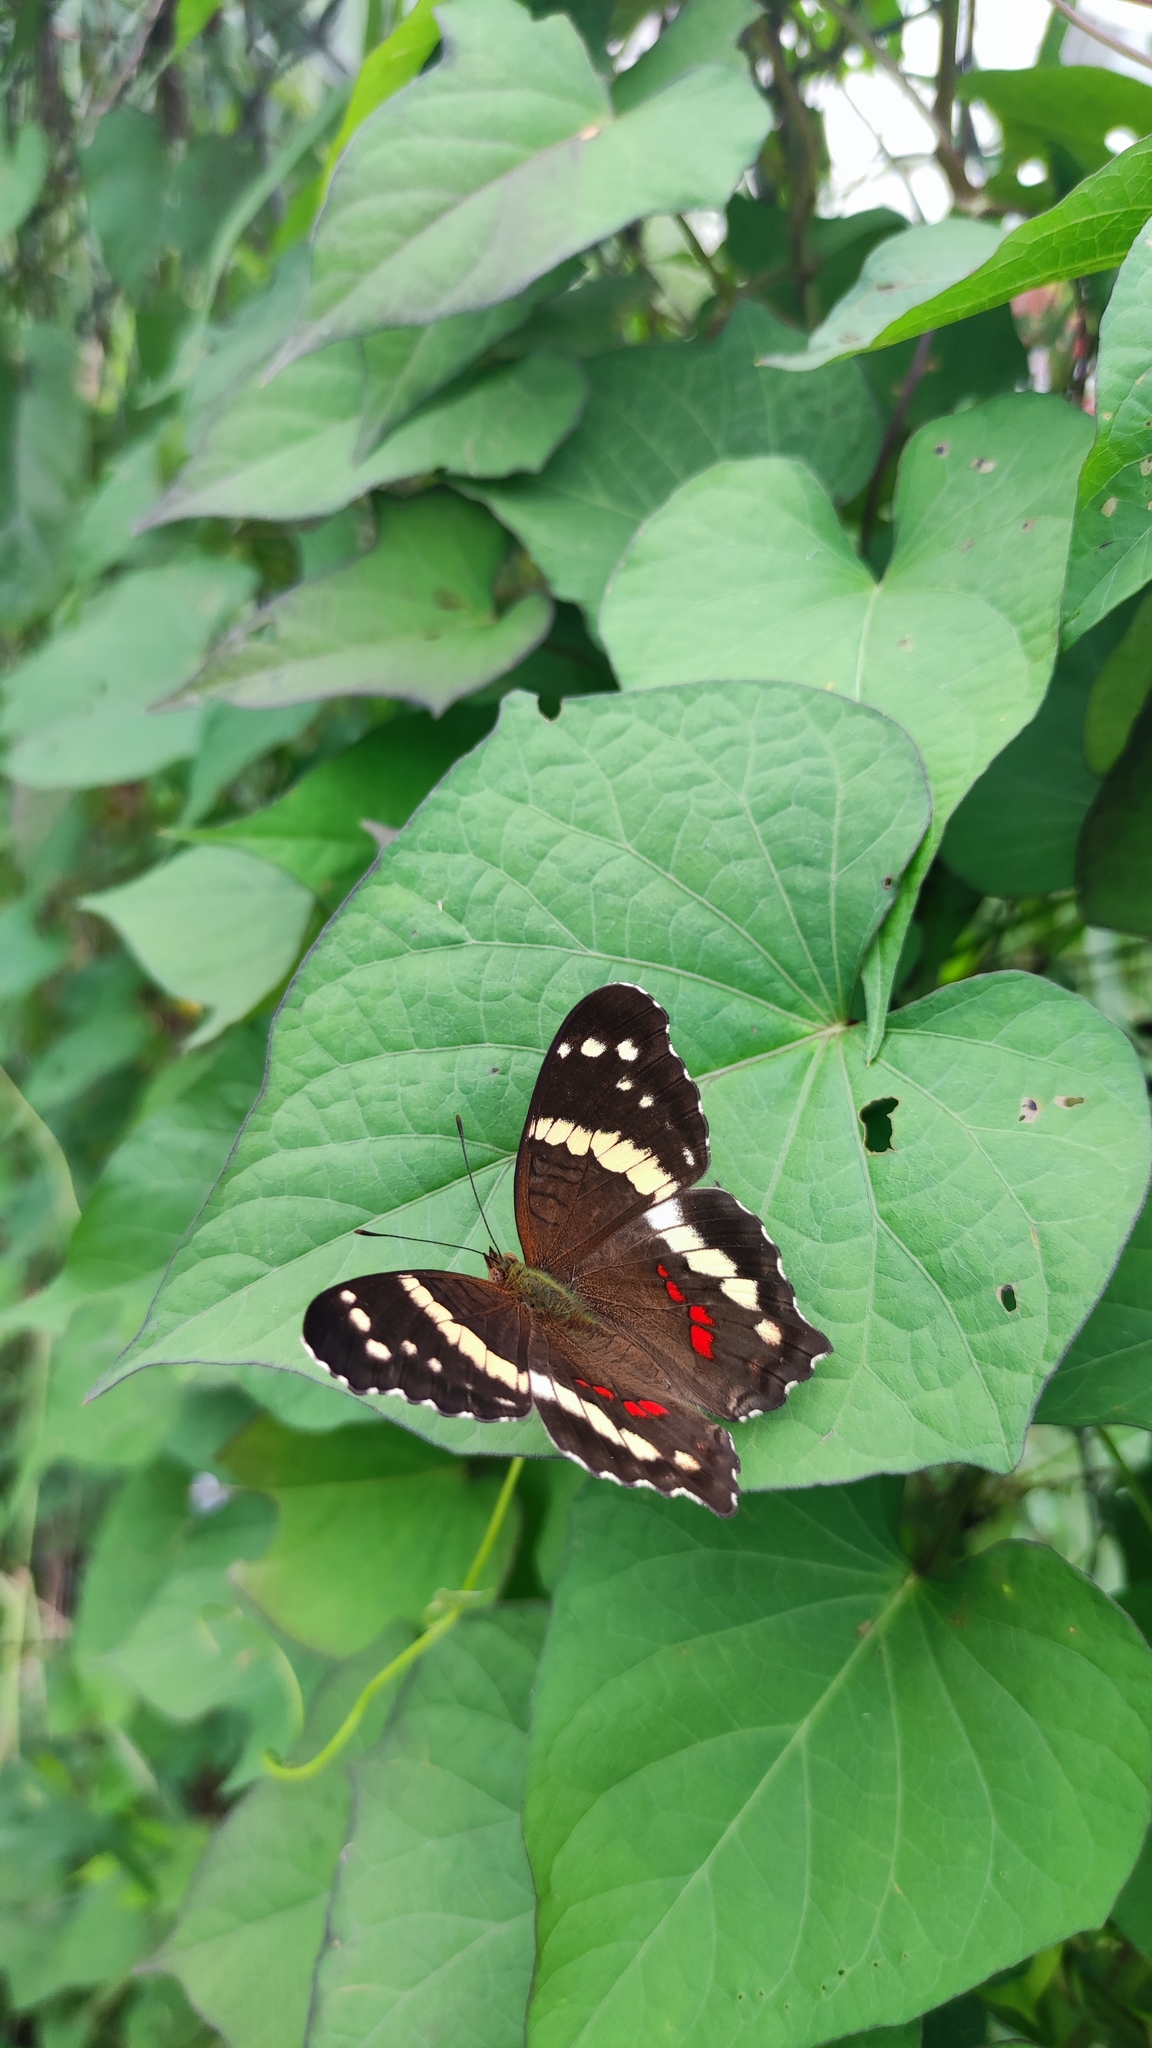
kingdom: Animalia
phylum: Arthropoda
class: Insecta
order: Lepidoptera
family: Nymphalidae
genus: Anartia
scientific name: Anartia fatima
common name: Banded peacock
